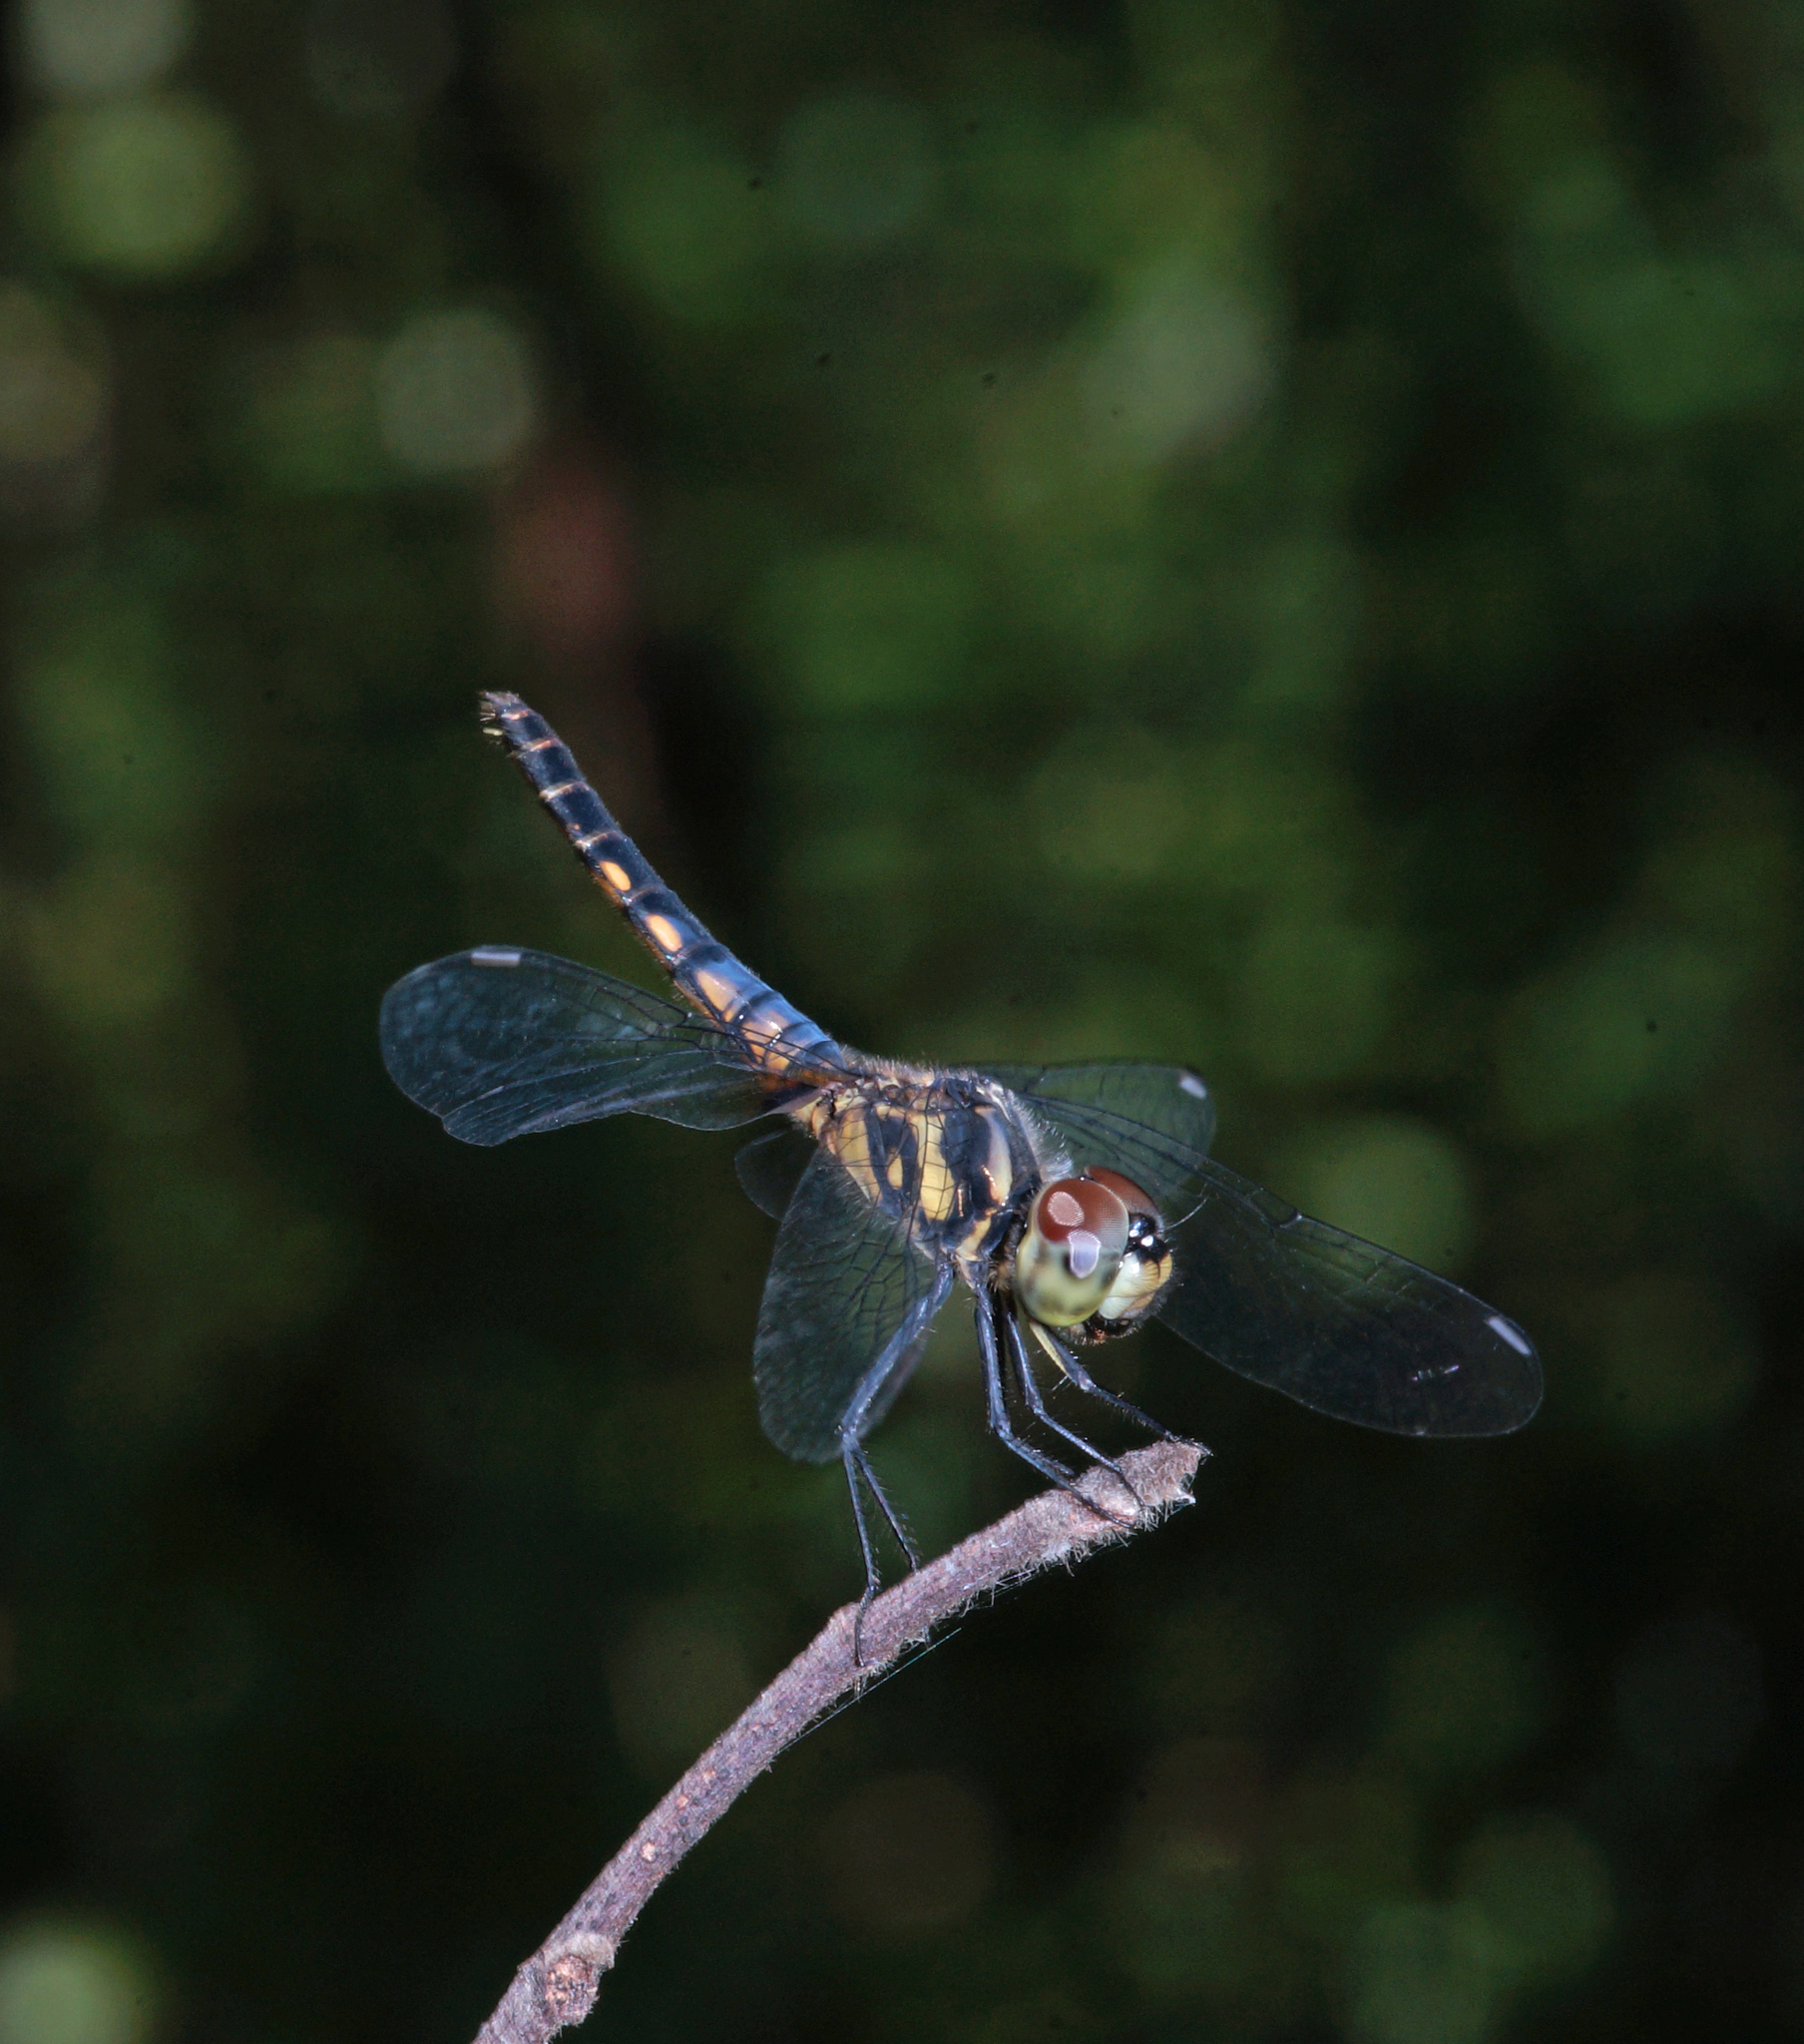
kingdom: Animalia
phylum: Arthropoda
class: Insecta
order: Odonata
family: Libellulidae
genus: Aethriamanta
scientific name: Aethriamanta aethra
